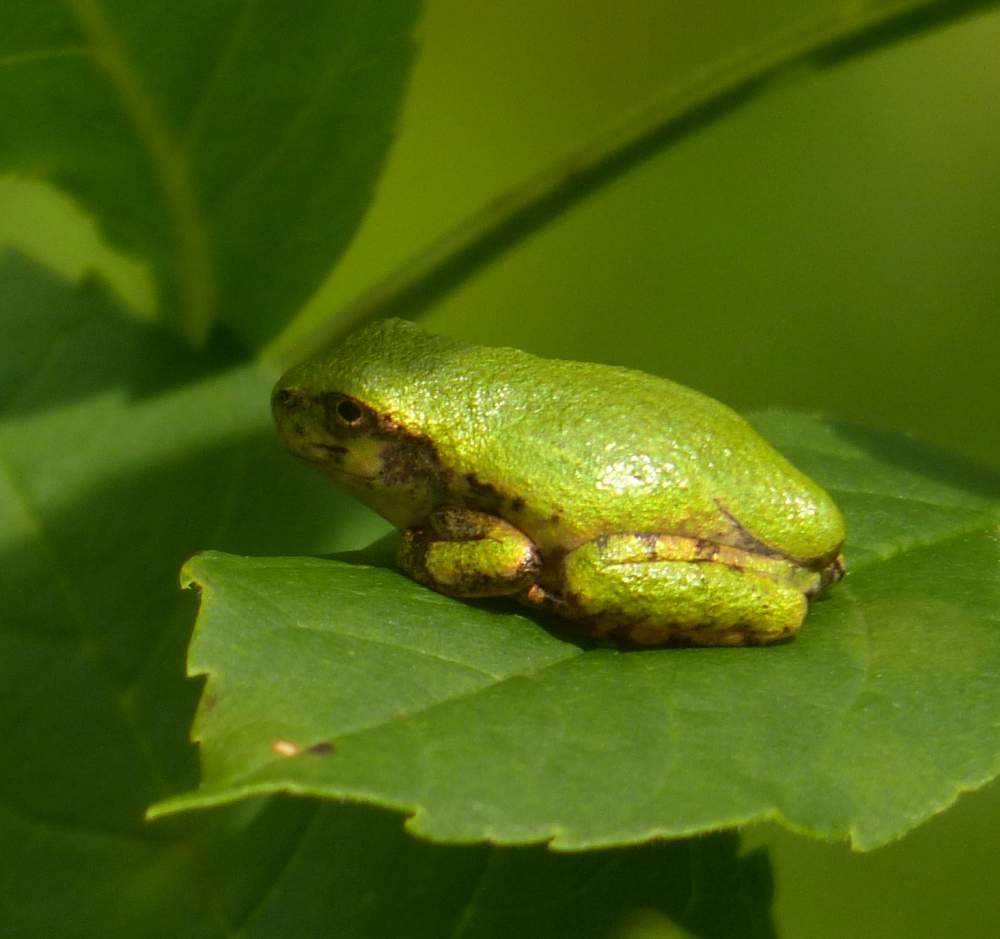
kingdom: Animalia
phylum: Chordata
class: Amphibia
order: Anura
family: Hylidae
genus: Dryophytes
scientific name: Dryophytes versicolor
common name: Gray treefrog
